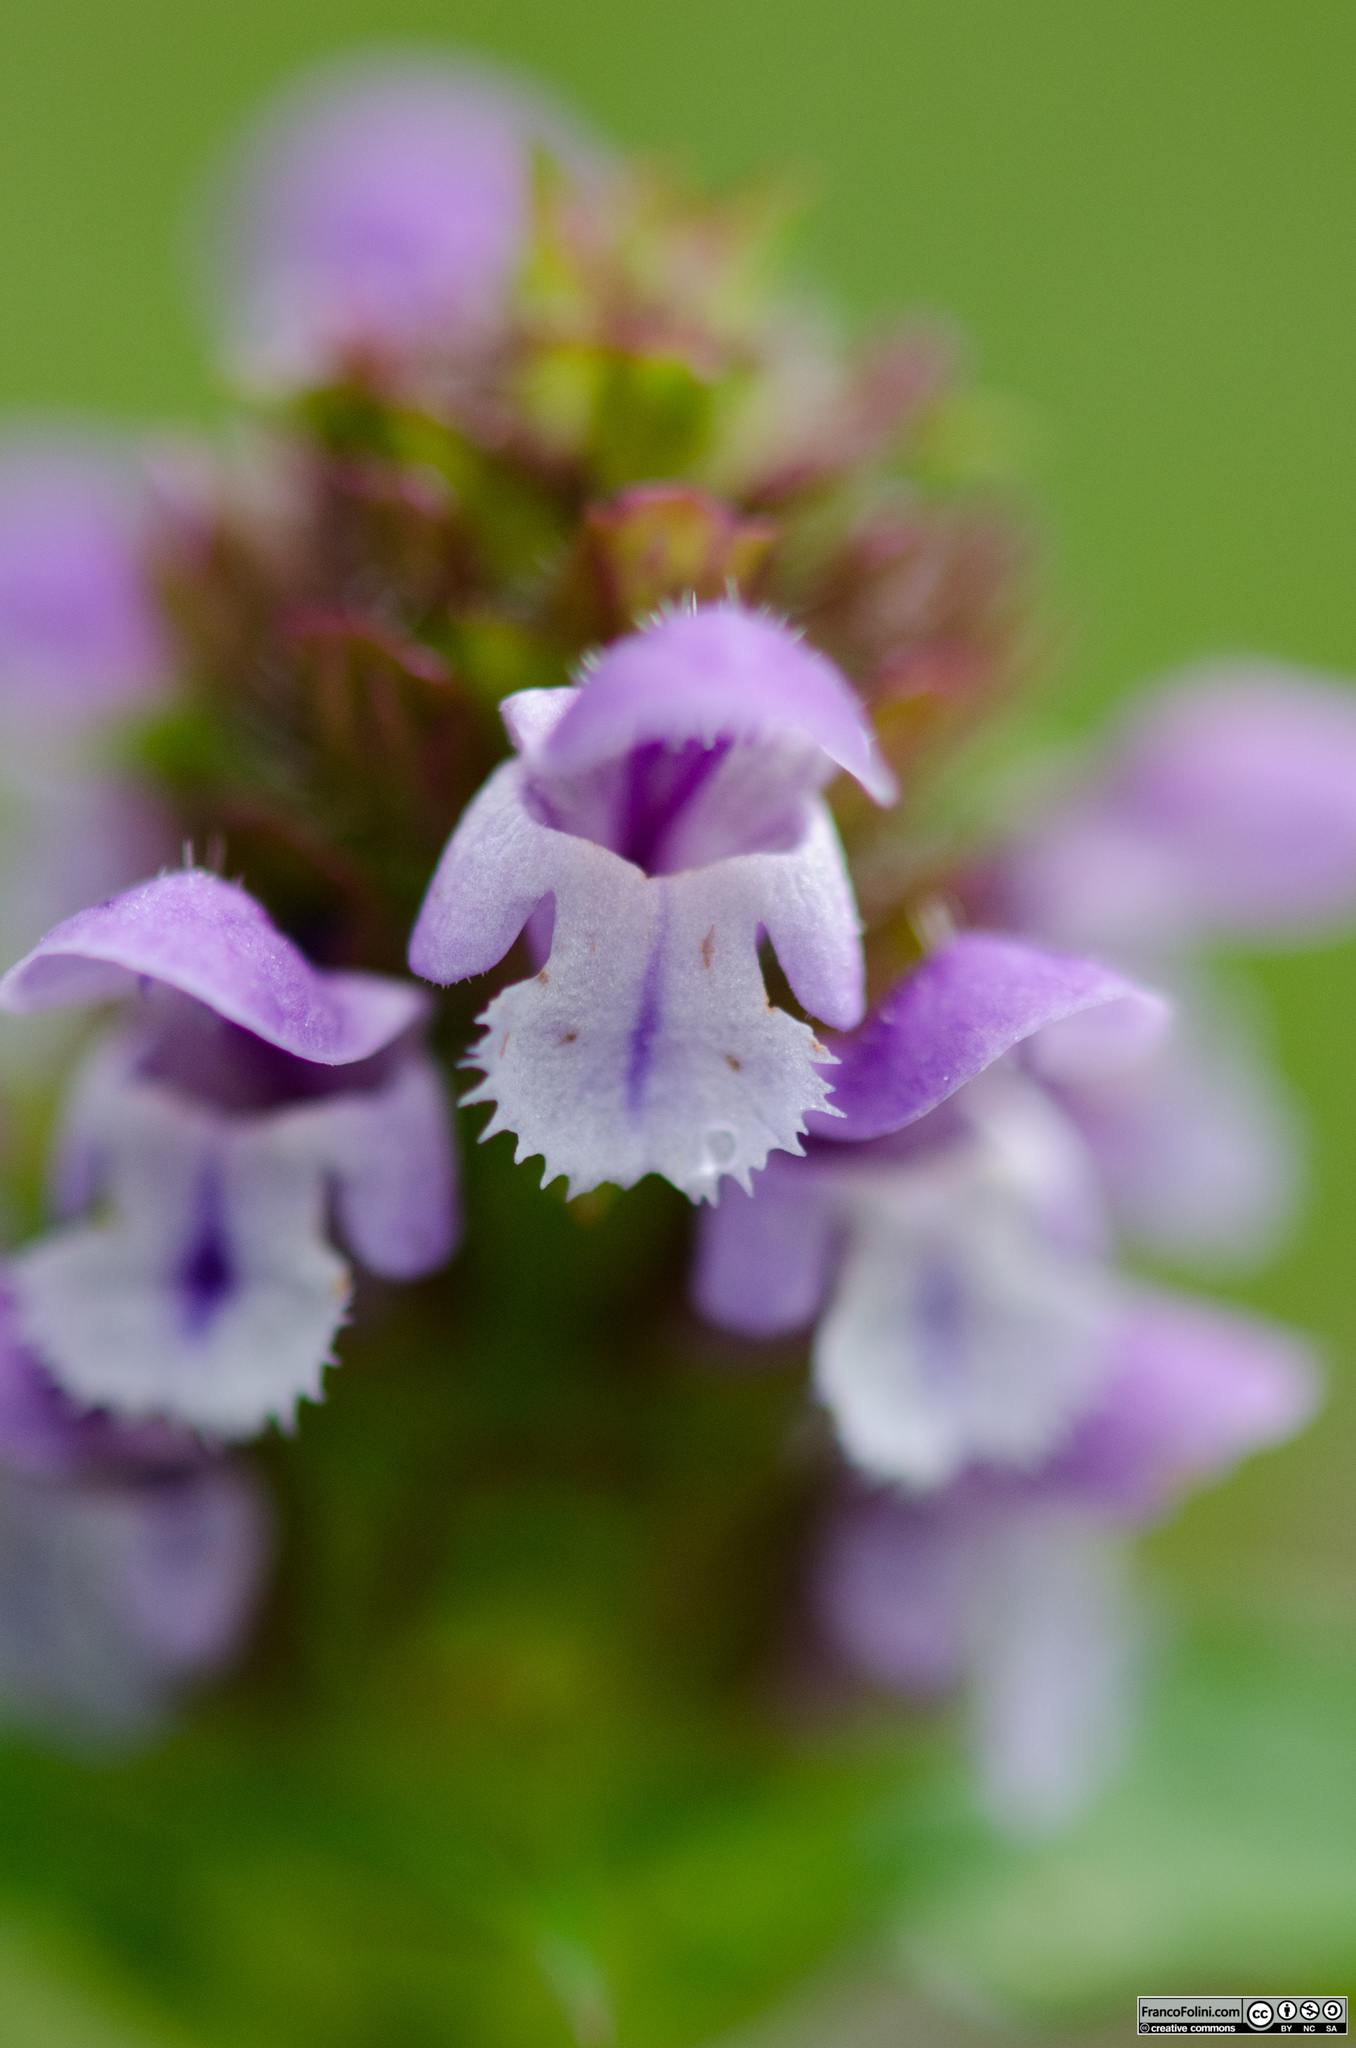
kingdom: Plantae
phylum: Tracheophyta
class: Magnoliopsida
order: Lamiales
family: Lamiaceae
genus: Prunella
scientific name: Prunella vulgaris
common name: Heal-all
